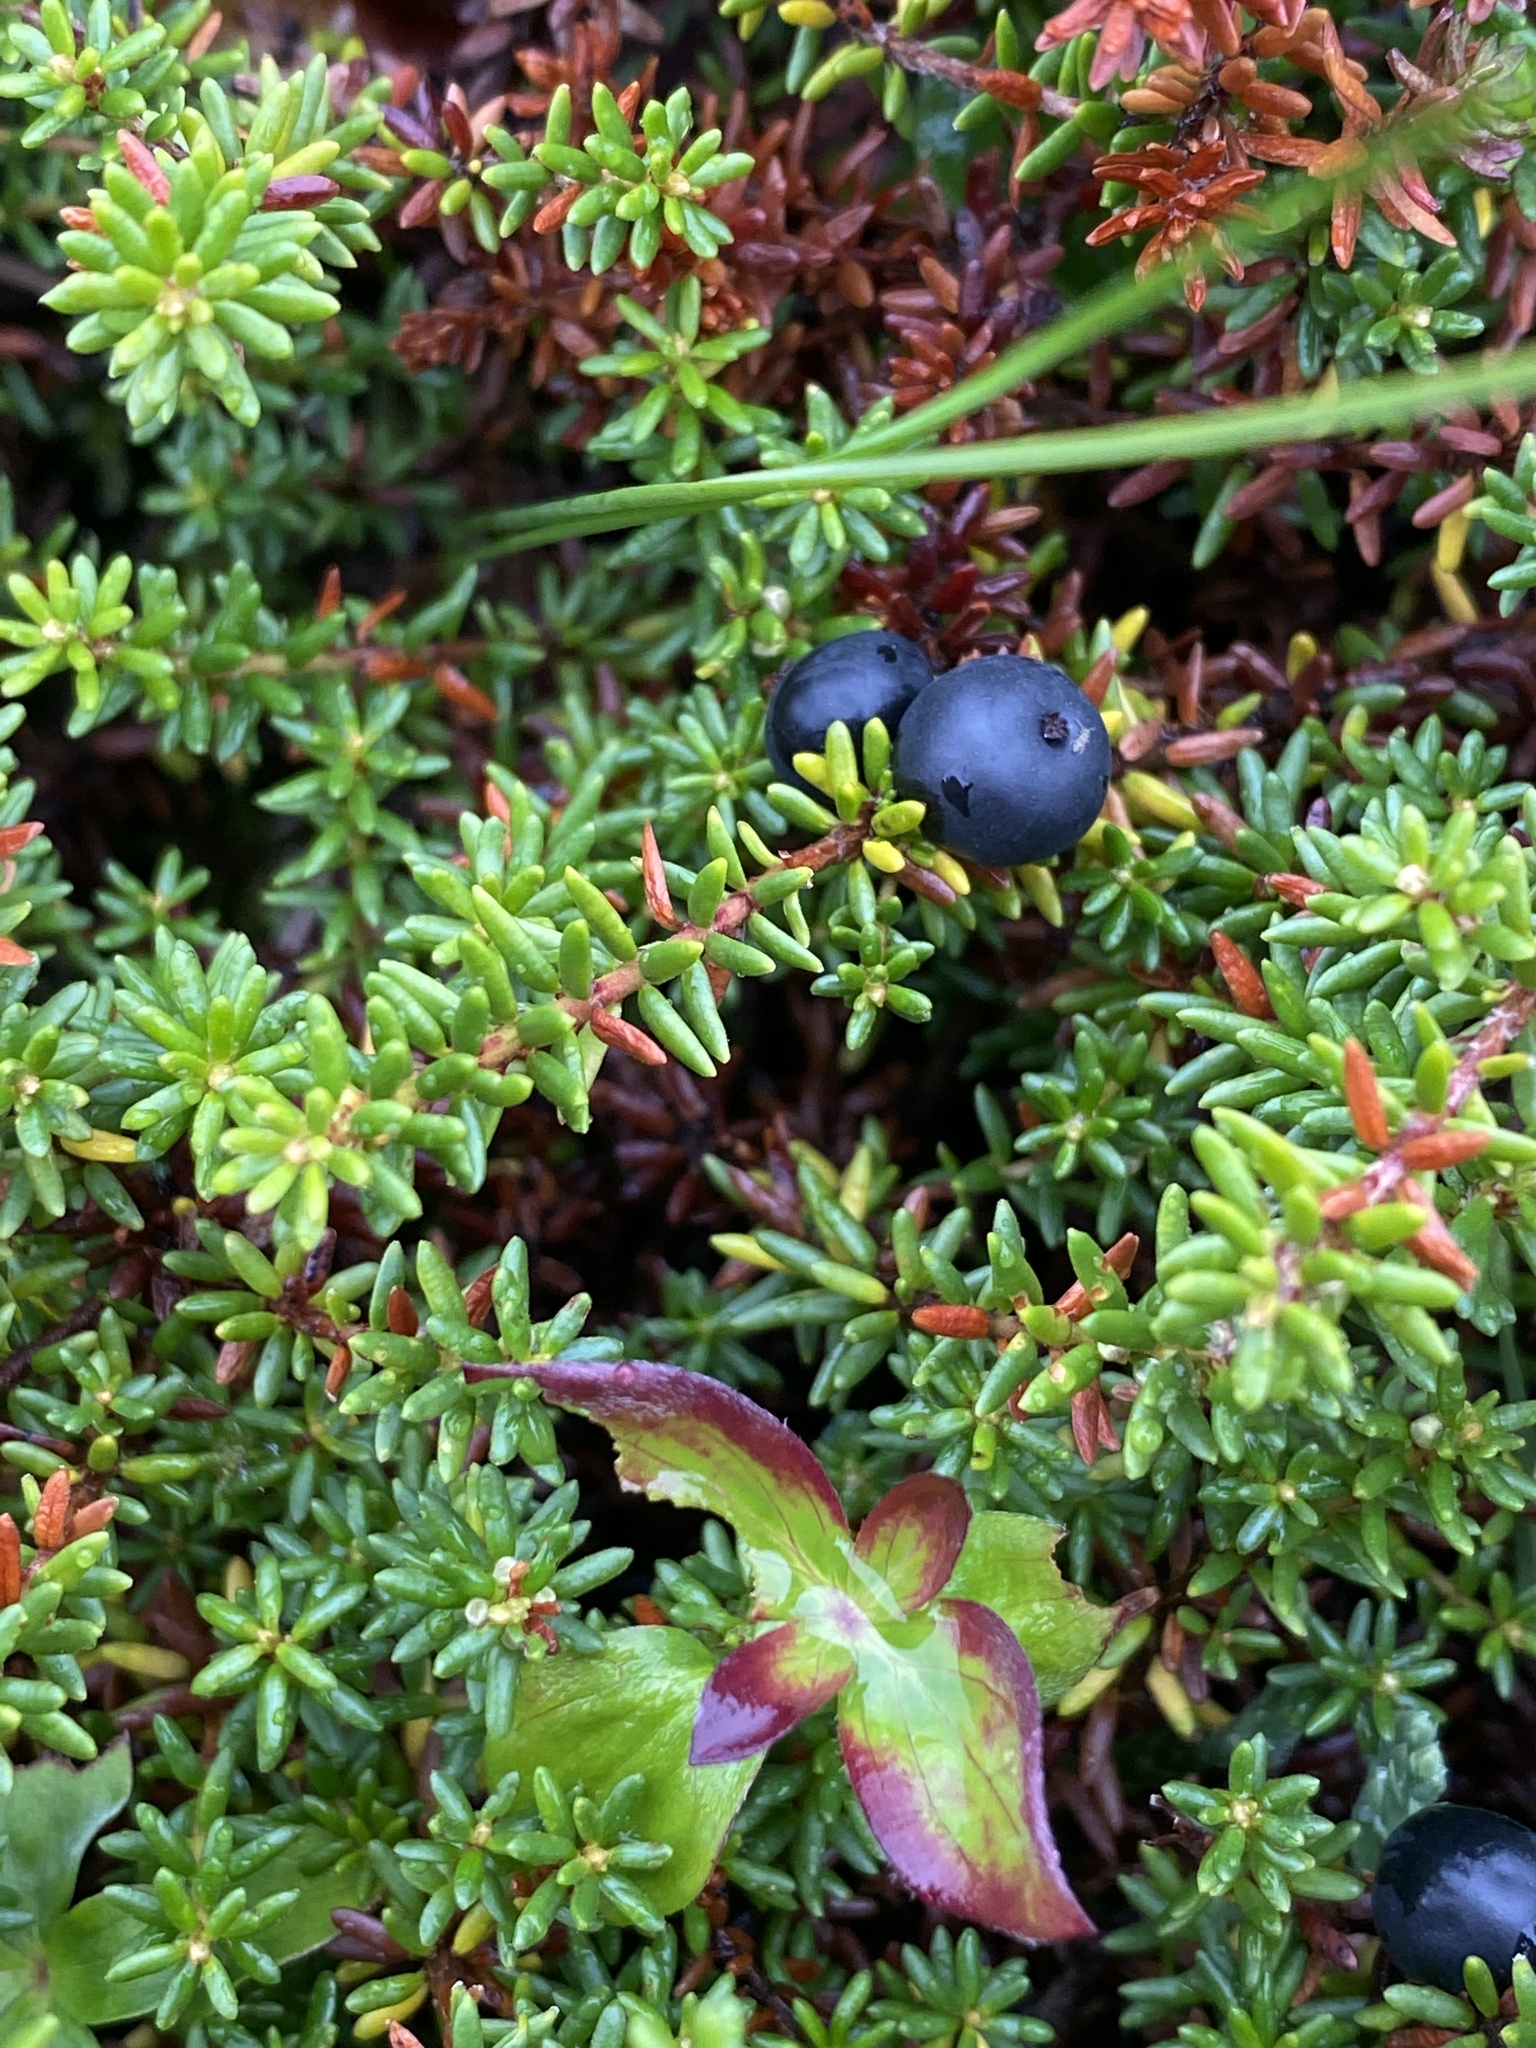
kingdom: Plantae
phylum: Tracheophyta
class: Magnoliopsida
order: Ericales
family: Ericaceae
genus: Empetrum
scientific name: Empetrum nigrum
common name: Black crowberry
